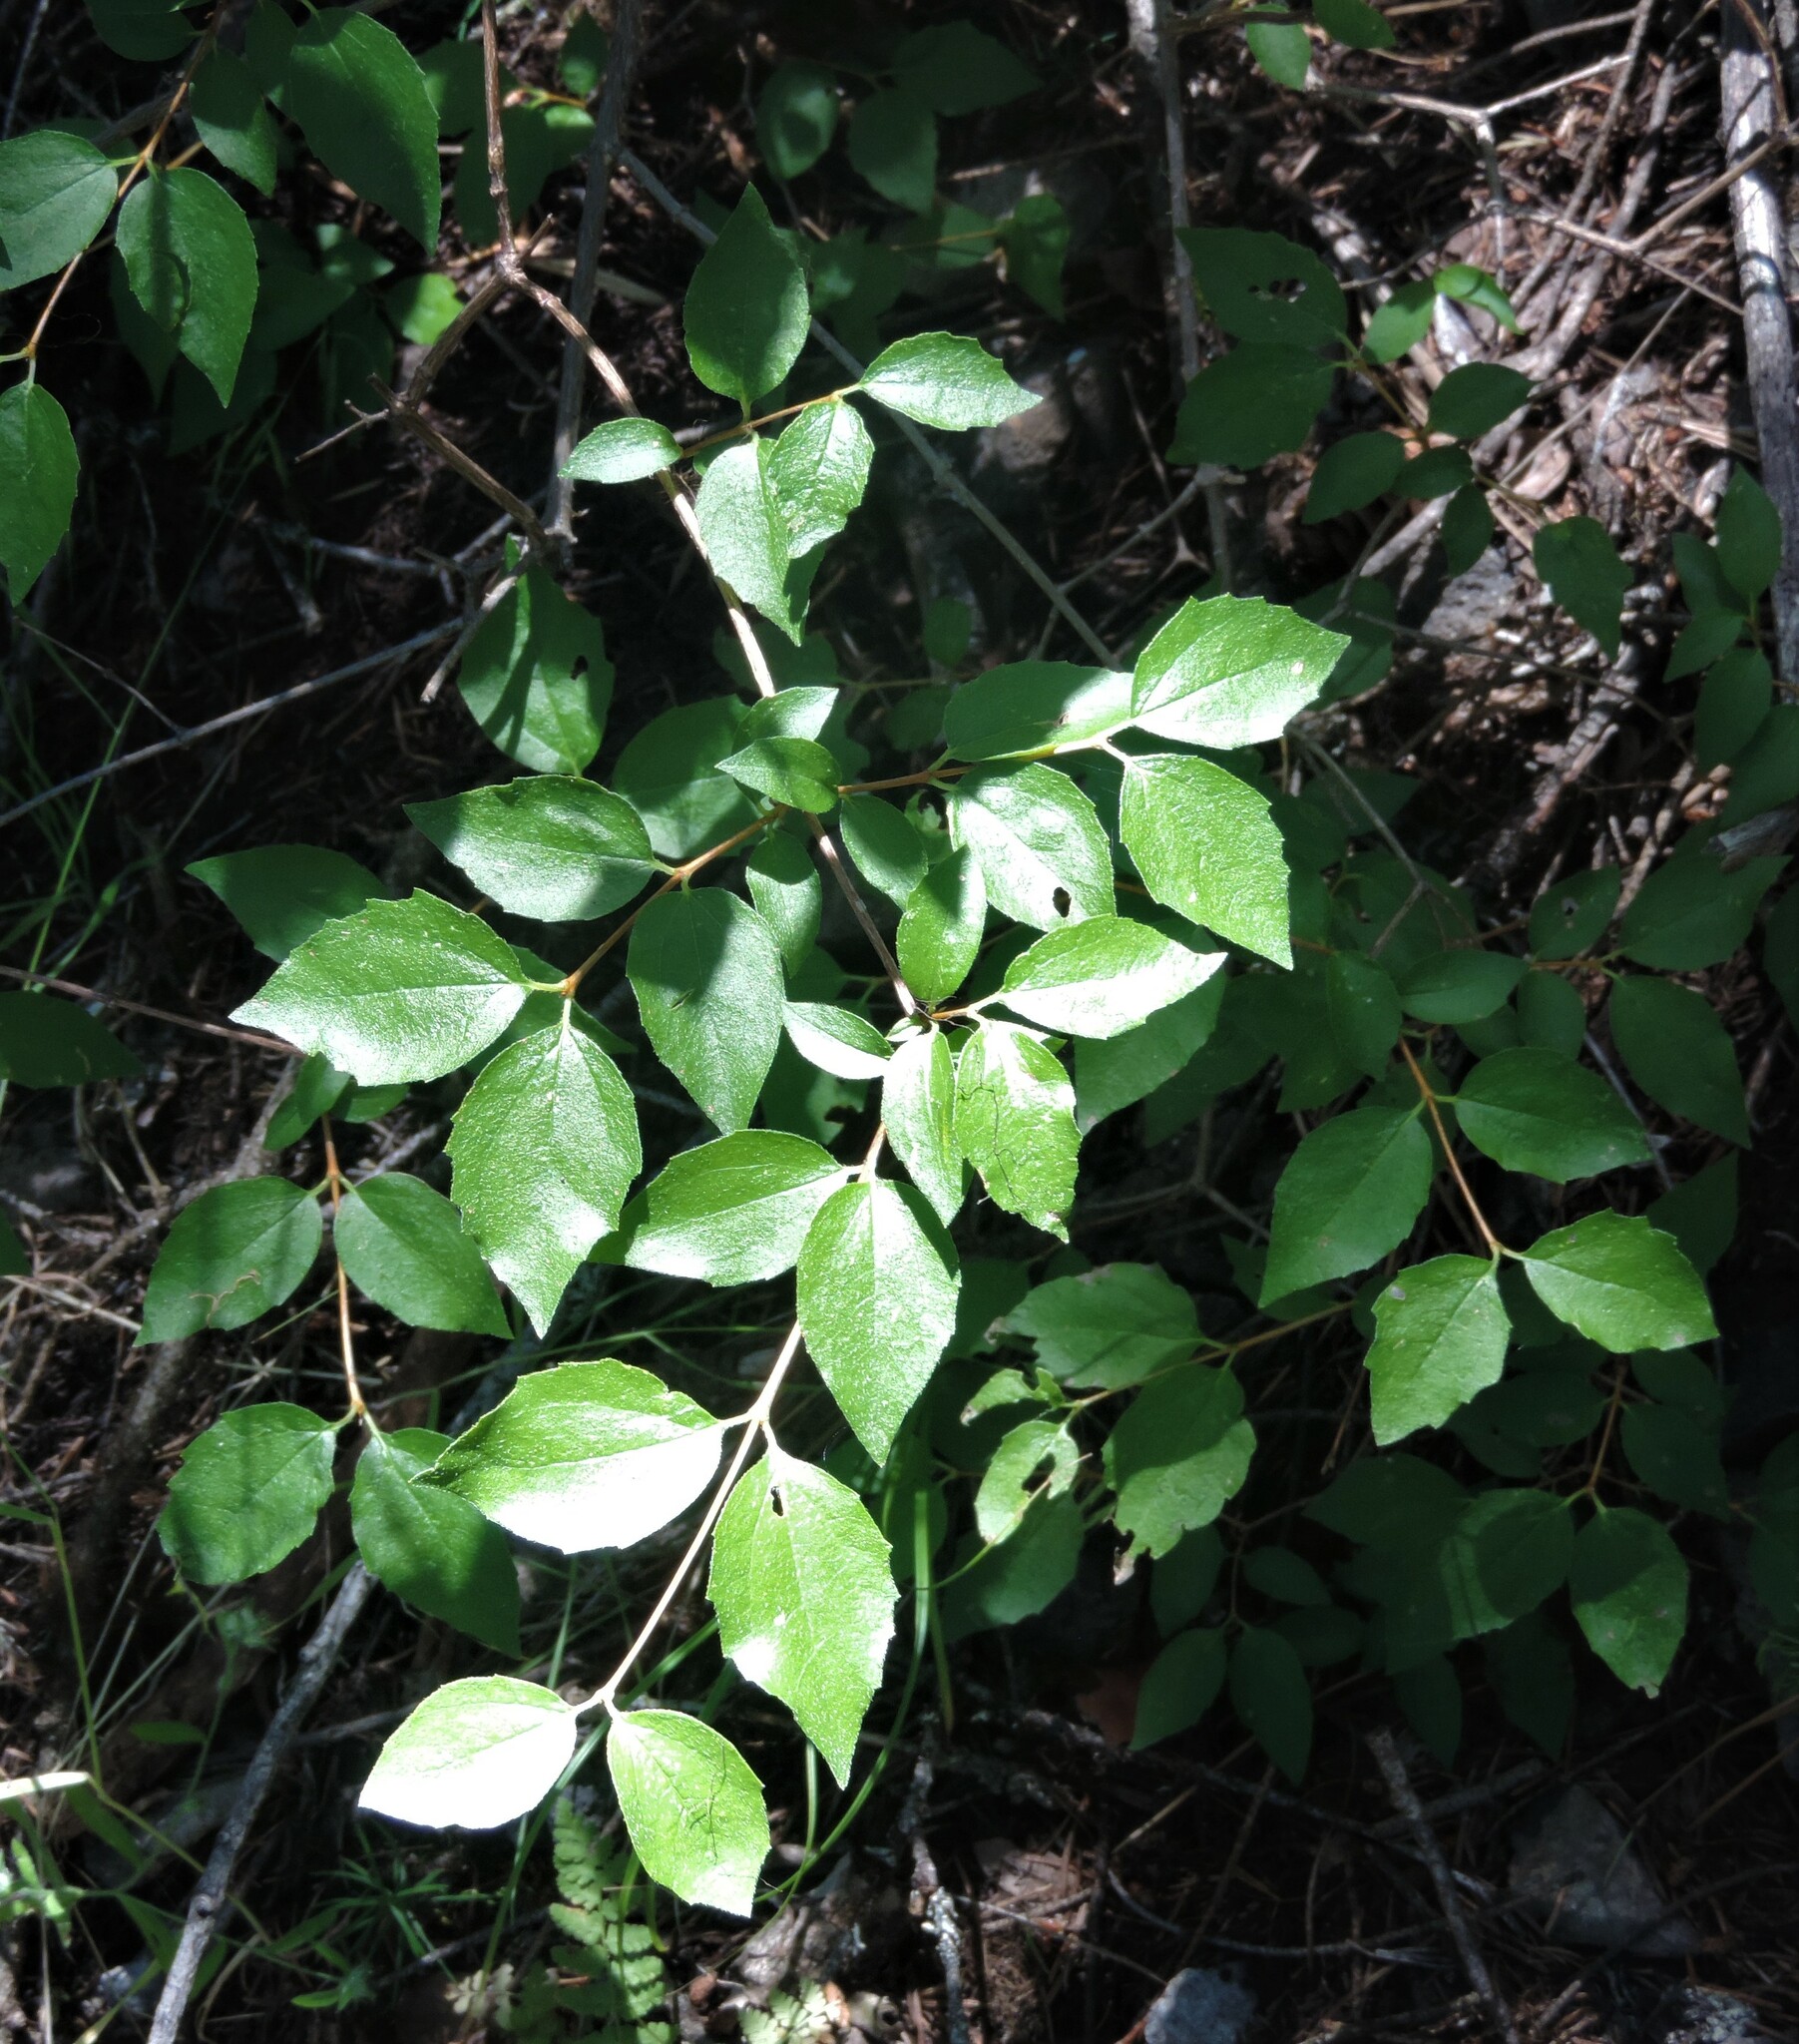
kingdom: Plantae
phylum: Tracheophyta
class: Magnoliopsida
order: Cornales
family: Hydrangeaceae
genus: Philadelphus
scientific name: Philadelphus lewisii
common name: Lewis's mock orange
